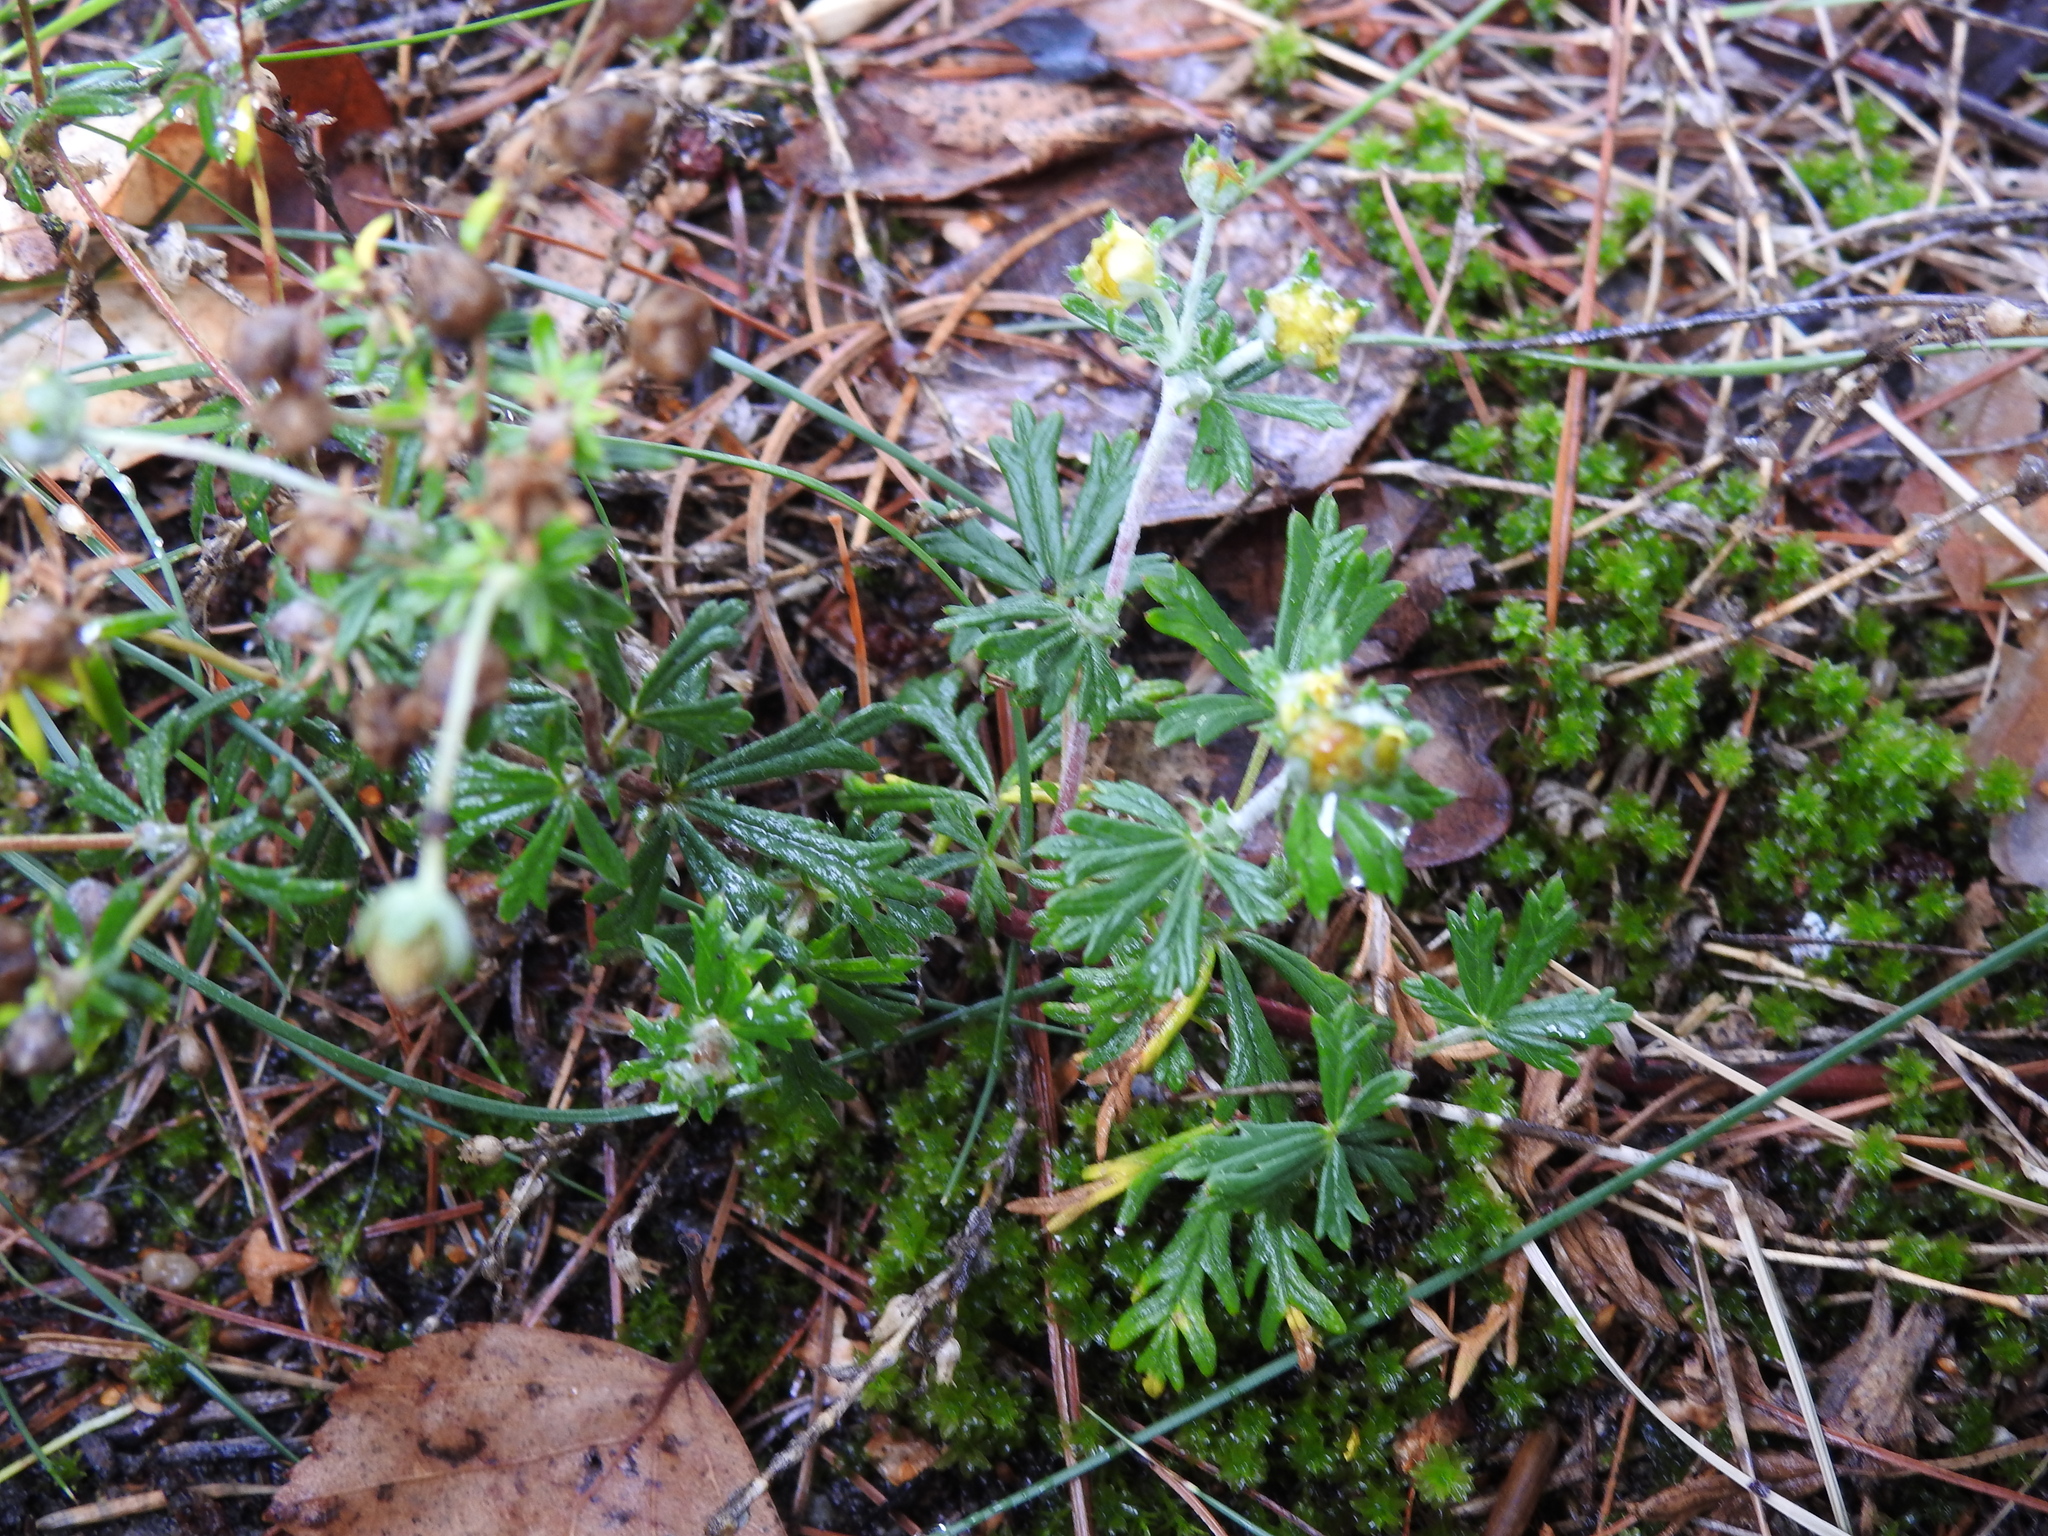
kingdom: Plantae
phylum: Tracheophyta
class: Magnoliopsida
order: Rosales
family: Rosaceae
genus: Potentilla
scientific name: Potentilla argentea
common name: Hoary cinquefoil
